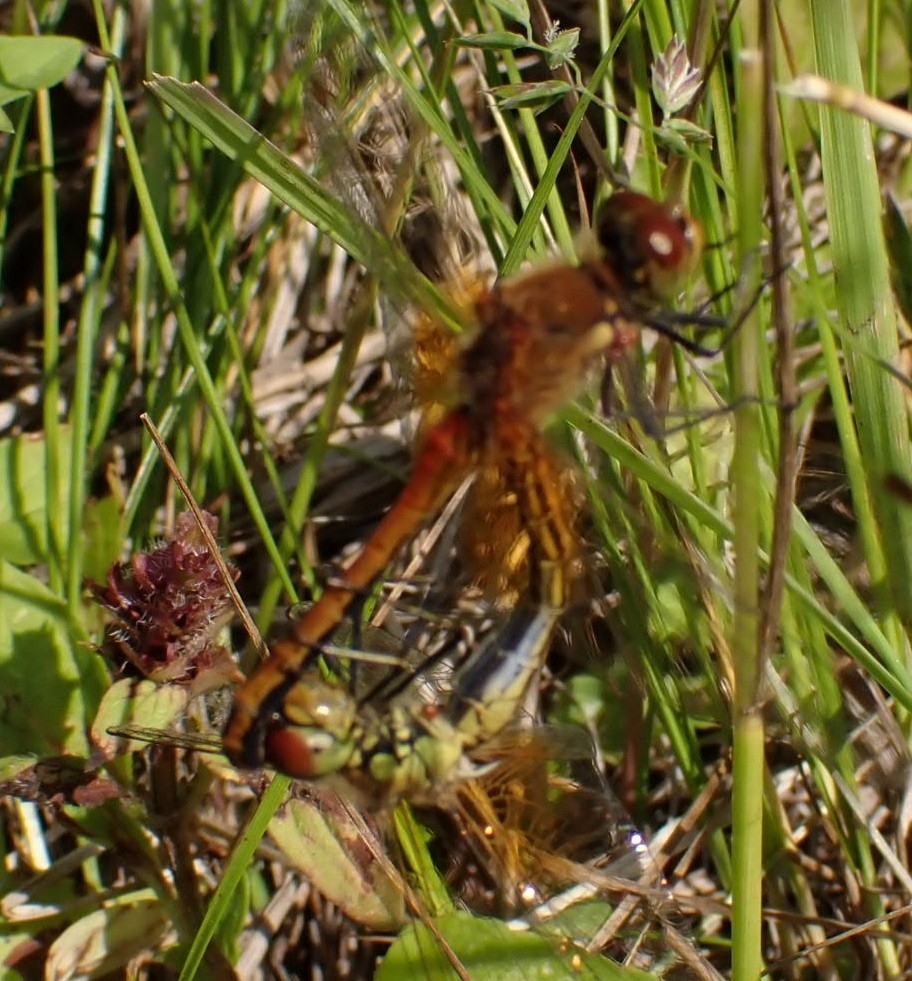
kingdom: Animalia
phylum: Arthropoda
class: Insecta
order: Odonata
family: Libellulidae
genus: Sympetrum
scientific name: Sympetrum flaveolum
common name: Yellow-winged darter
